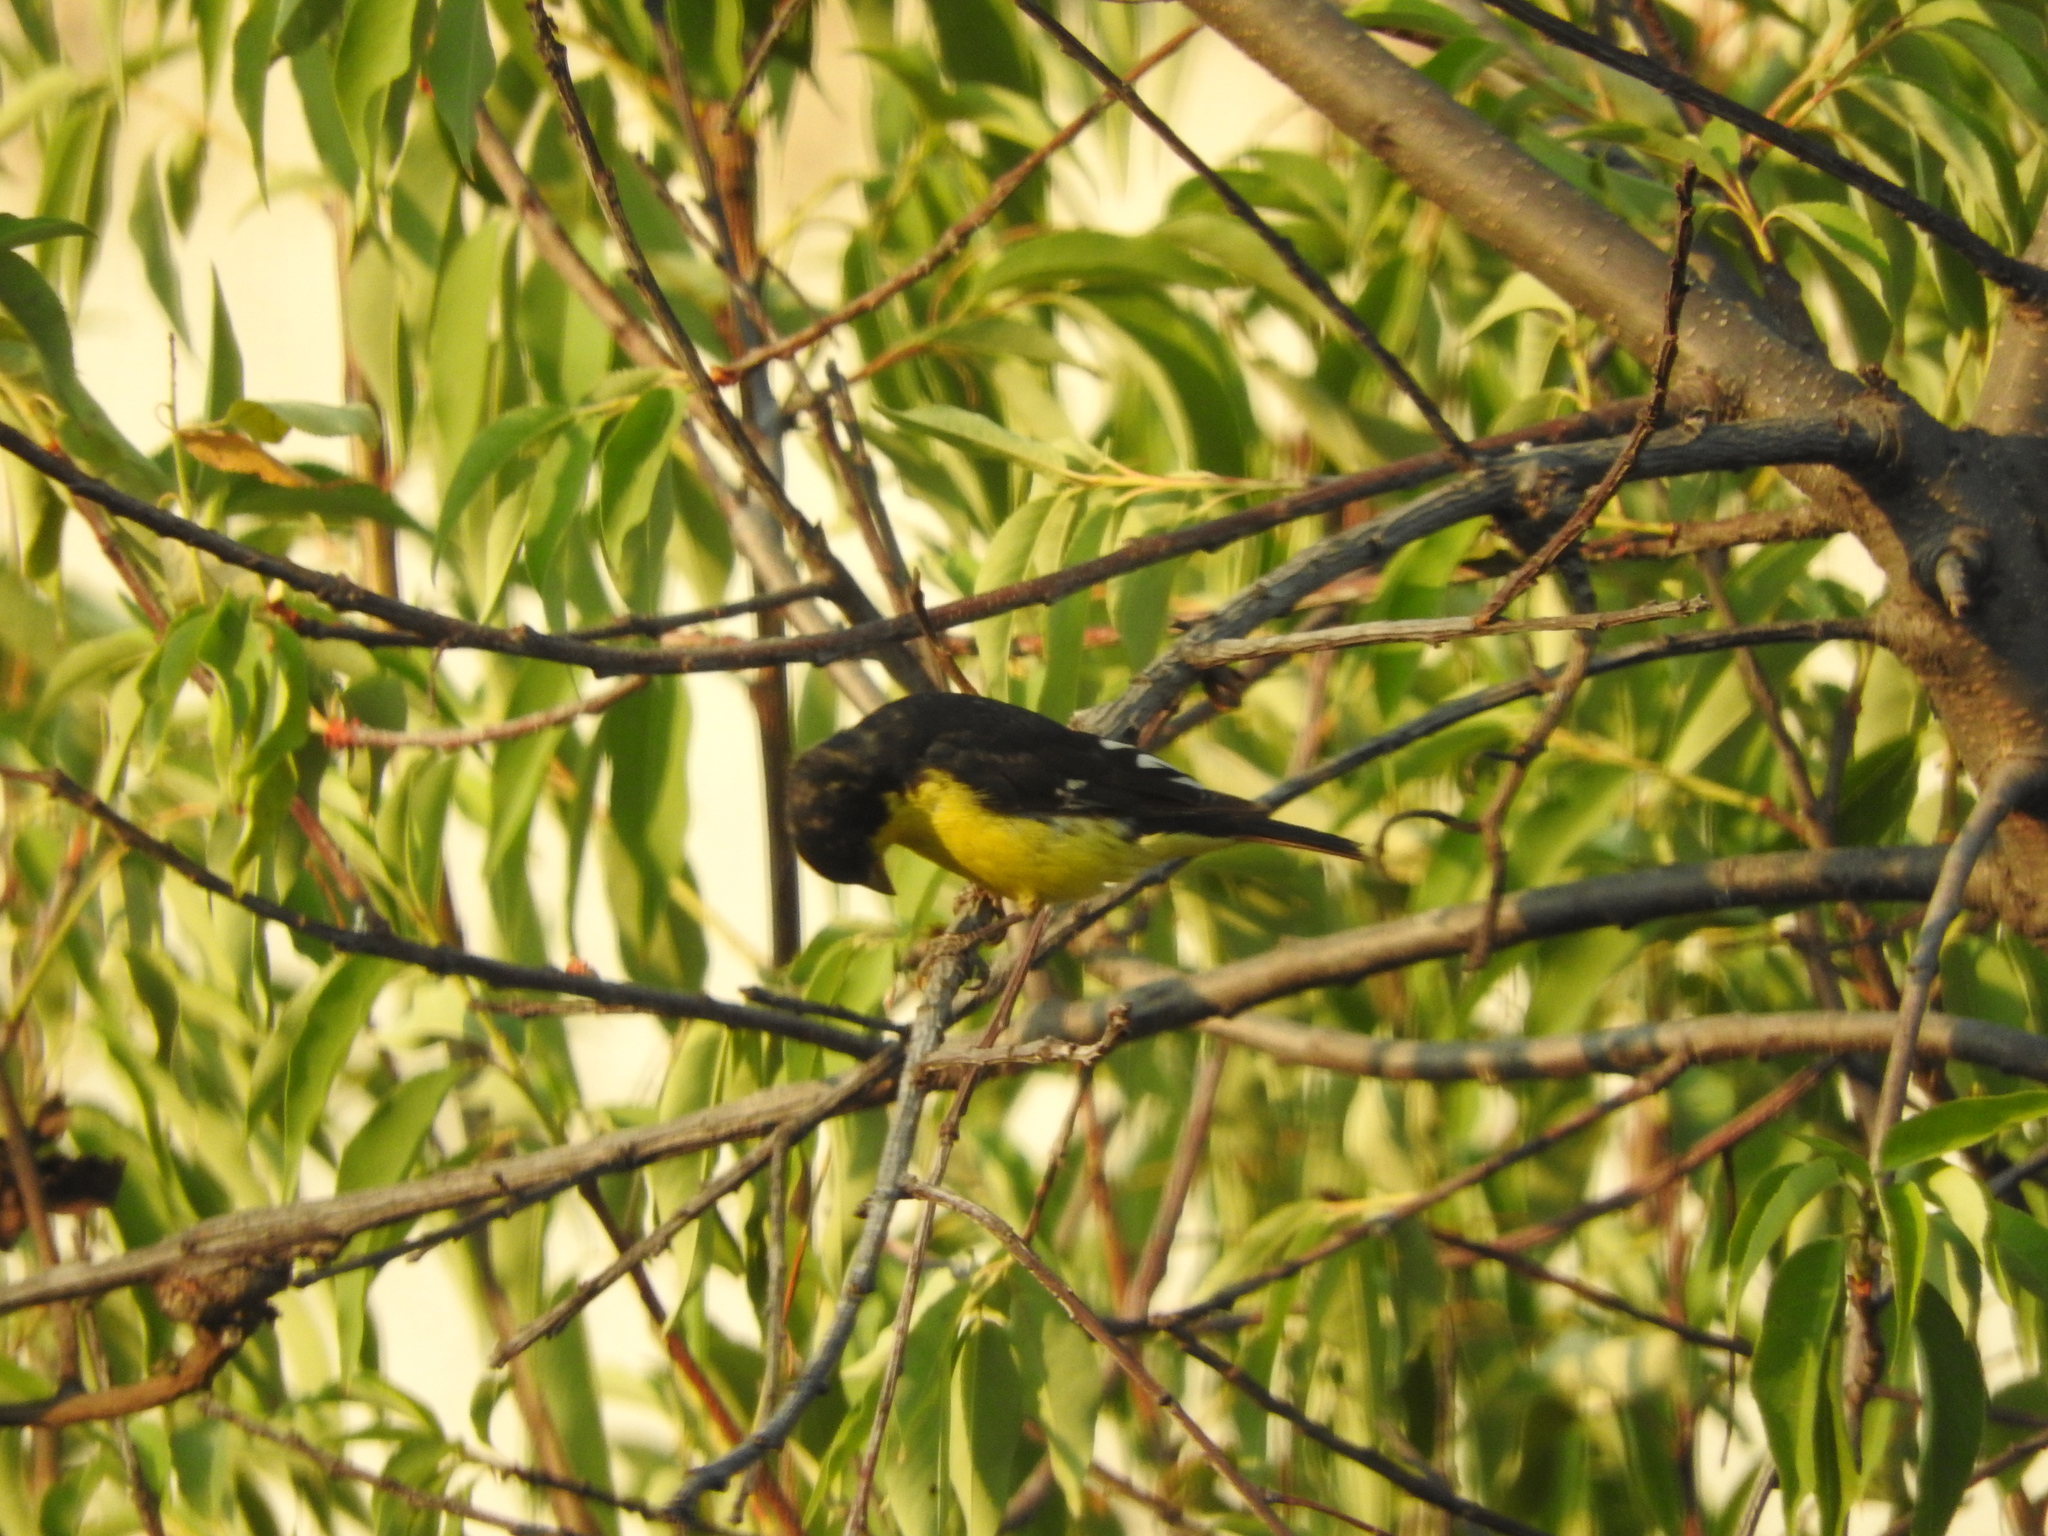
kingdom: Animalia
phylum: Chordata
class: Aves
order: Passeriformes
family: Fringillidae
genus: Spinus
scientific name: Spinus psaltria
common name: Lesser goldfinch
